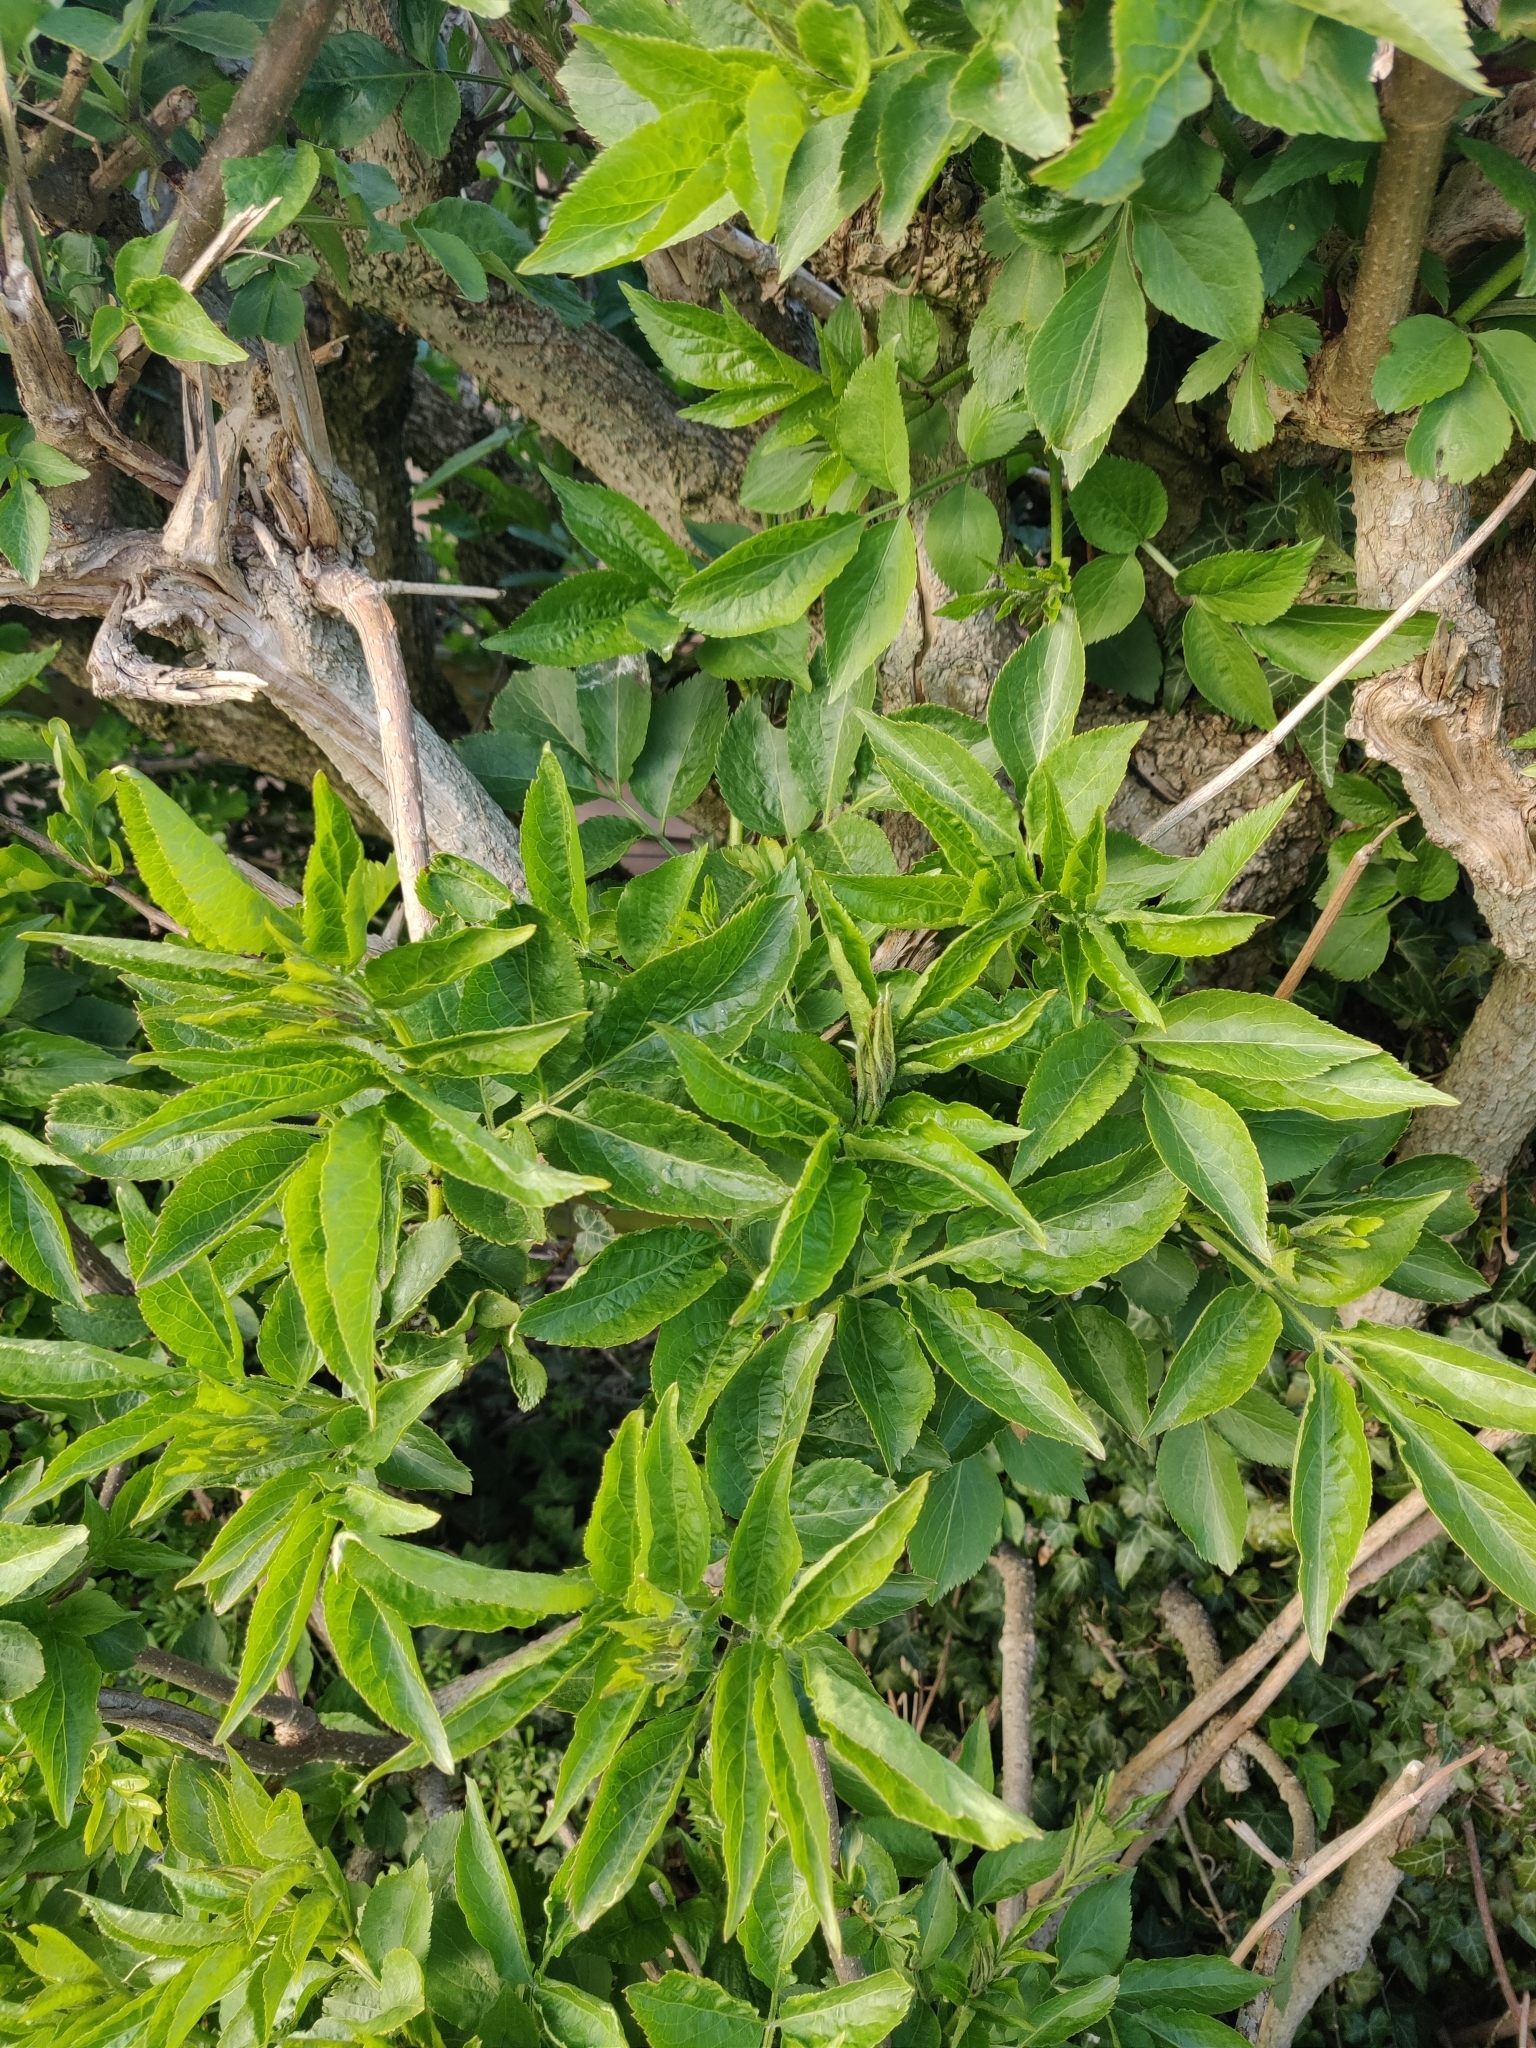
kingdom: Plantae
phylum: Tracheophyta
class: Magnoliopsida
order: Dipsacales
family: Viburnaceae
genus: Sambucus
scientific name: Sambucus nigra
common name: Elder
